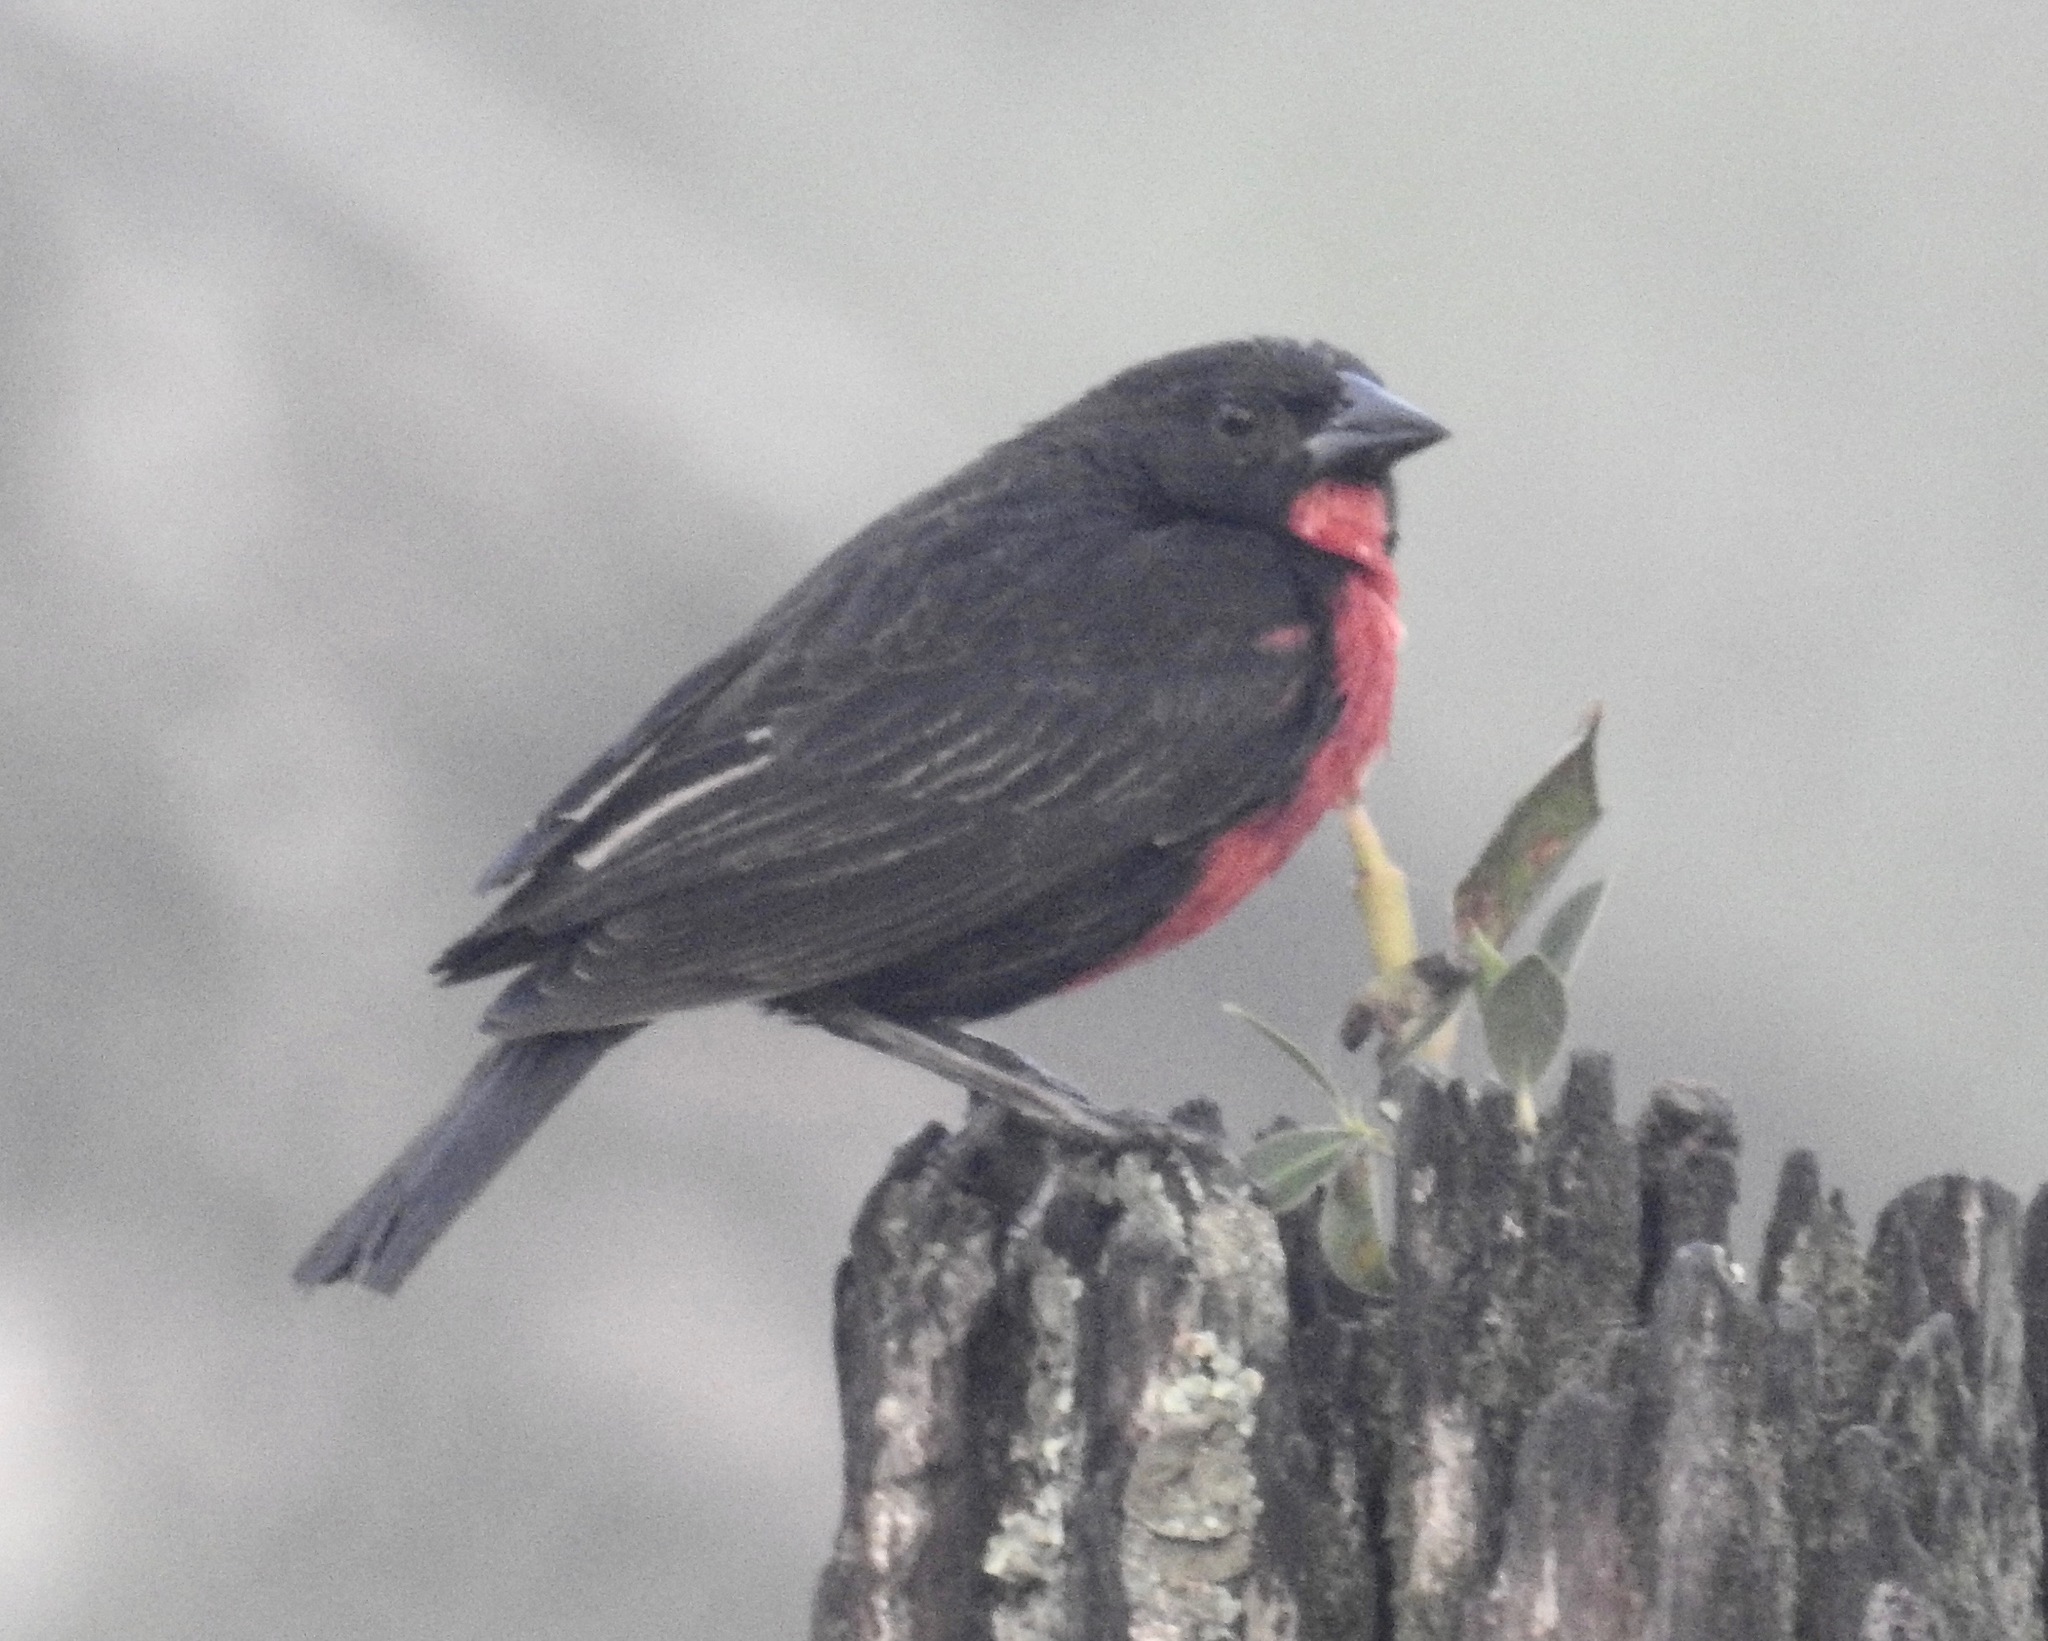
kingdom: Animalia
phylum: Chordata
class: Aves
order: Passeriformes
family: Icteridae
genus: Sturnella
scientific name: Sturnella militaris
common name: Red-breasted blackbird
